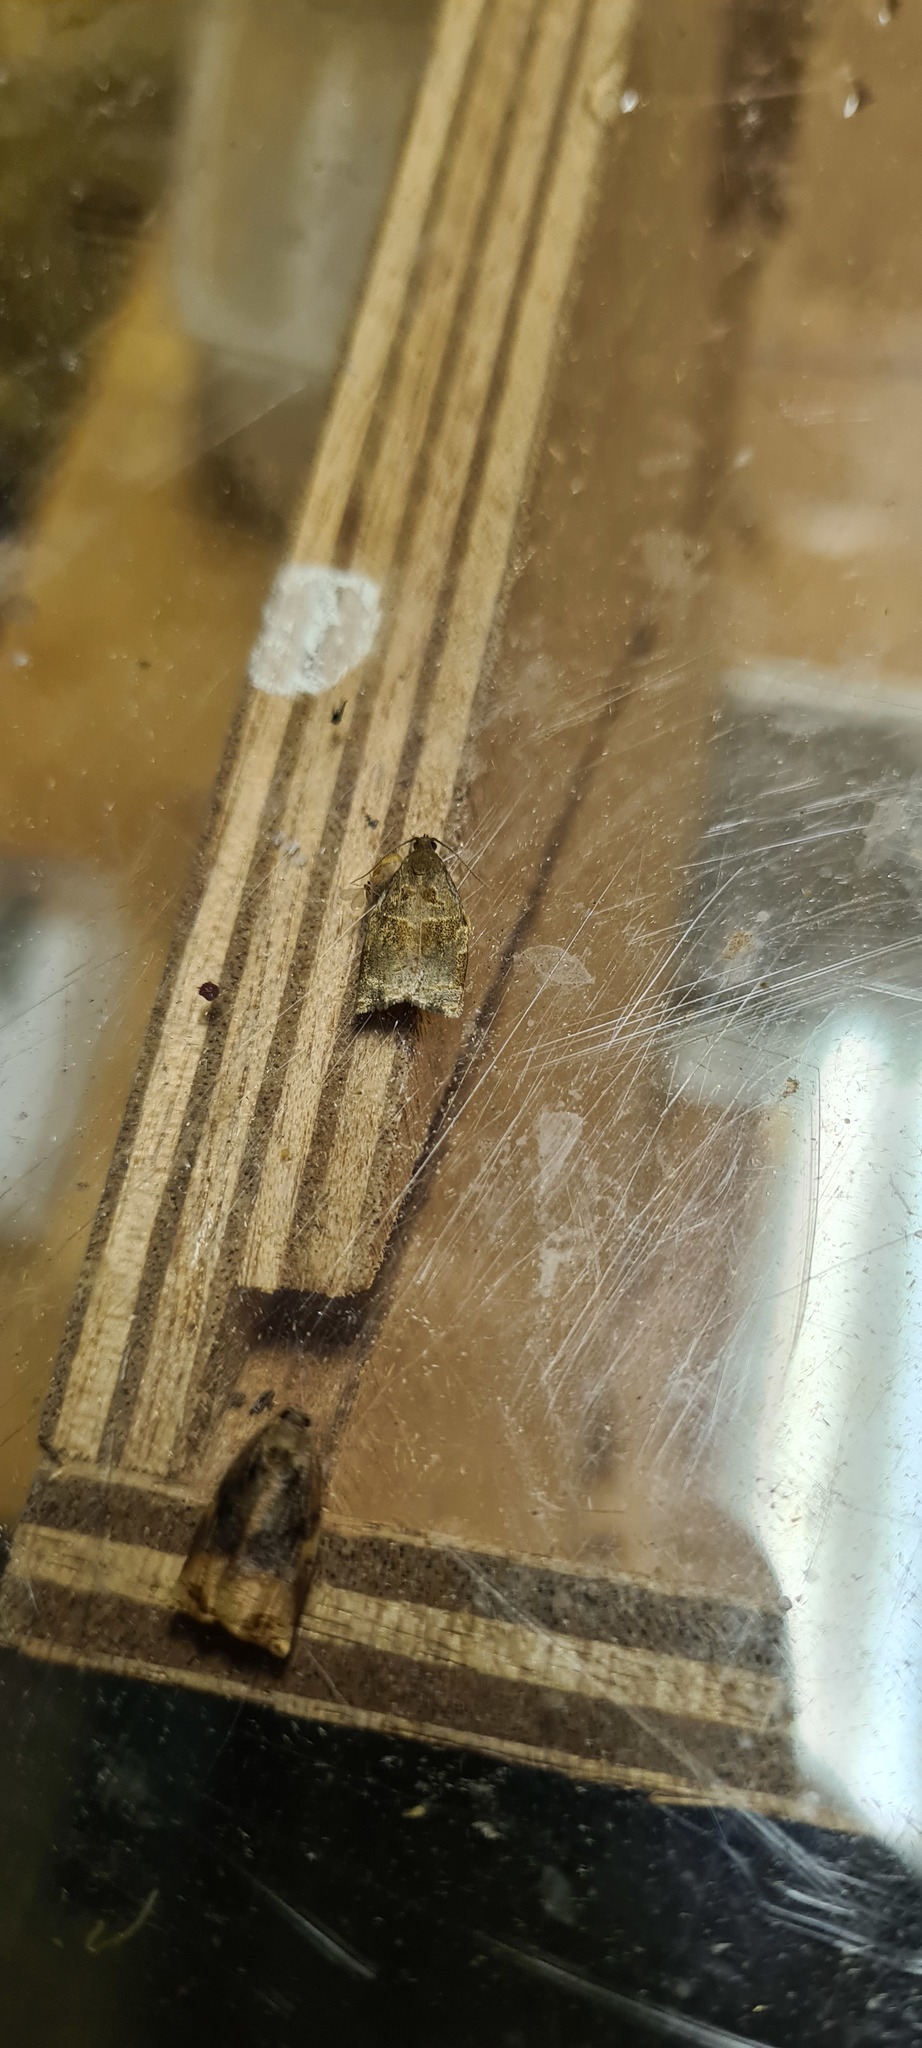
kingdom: Animalia
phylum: Arthropoda
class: Insecta
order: Lepidoptera
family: Tortricidae
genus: Archips
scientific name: Archips rosana
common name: Rose tortrix
